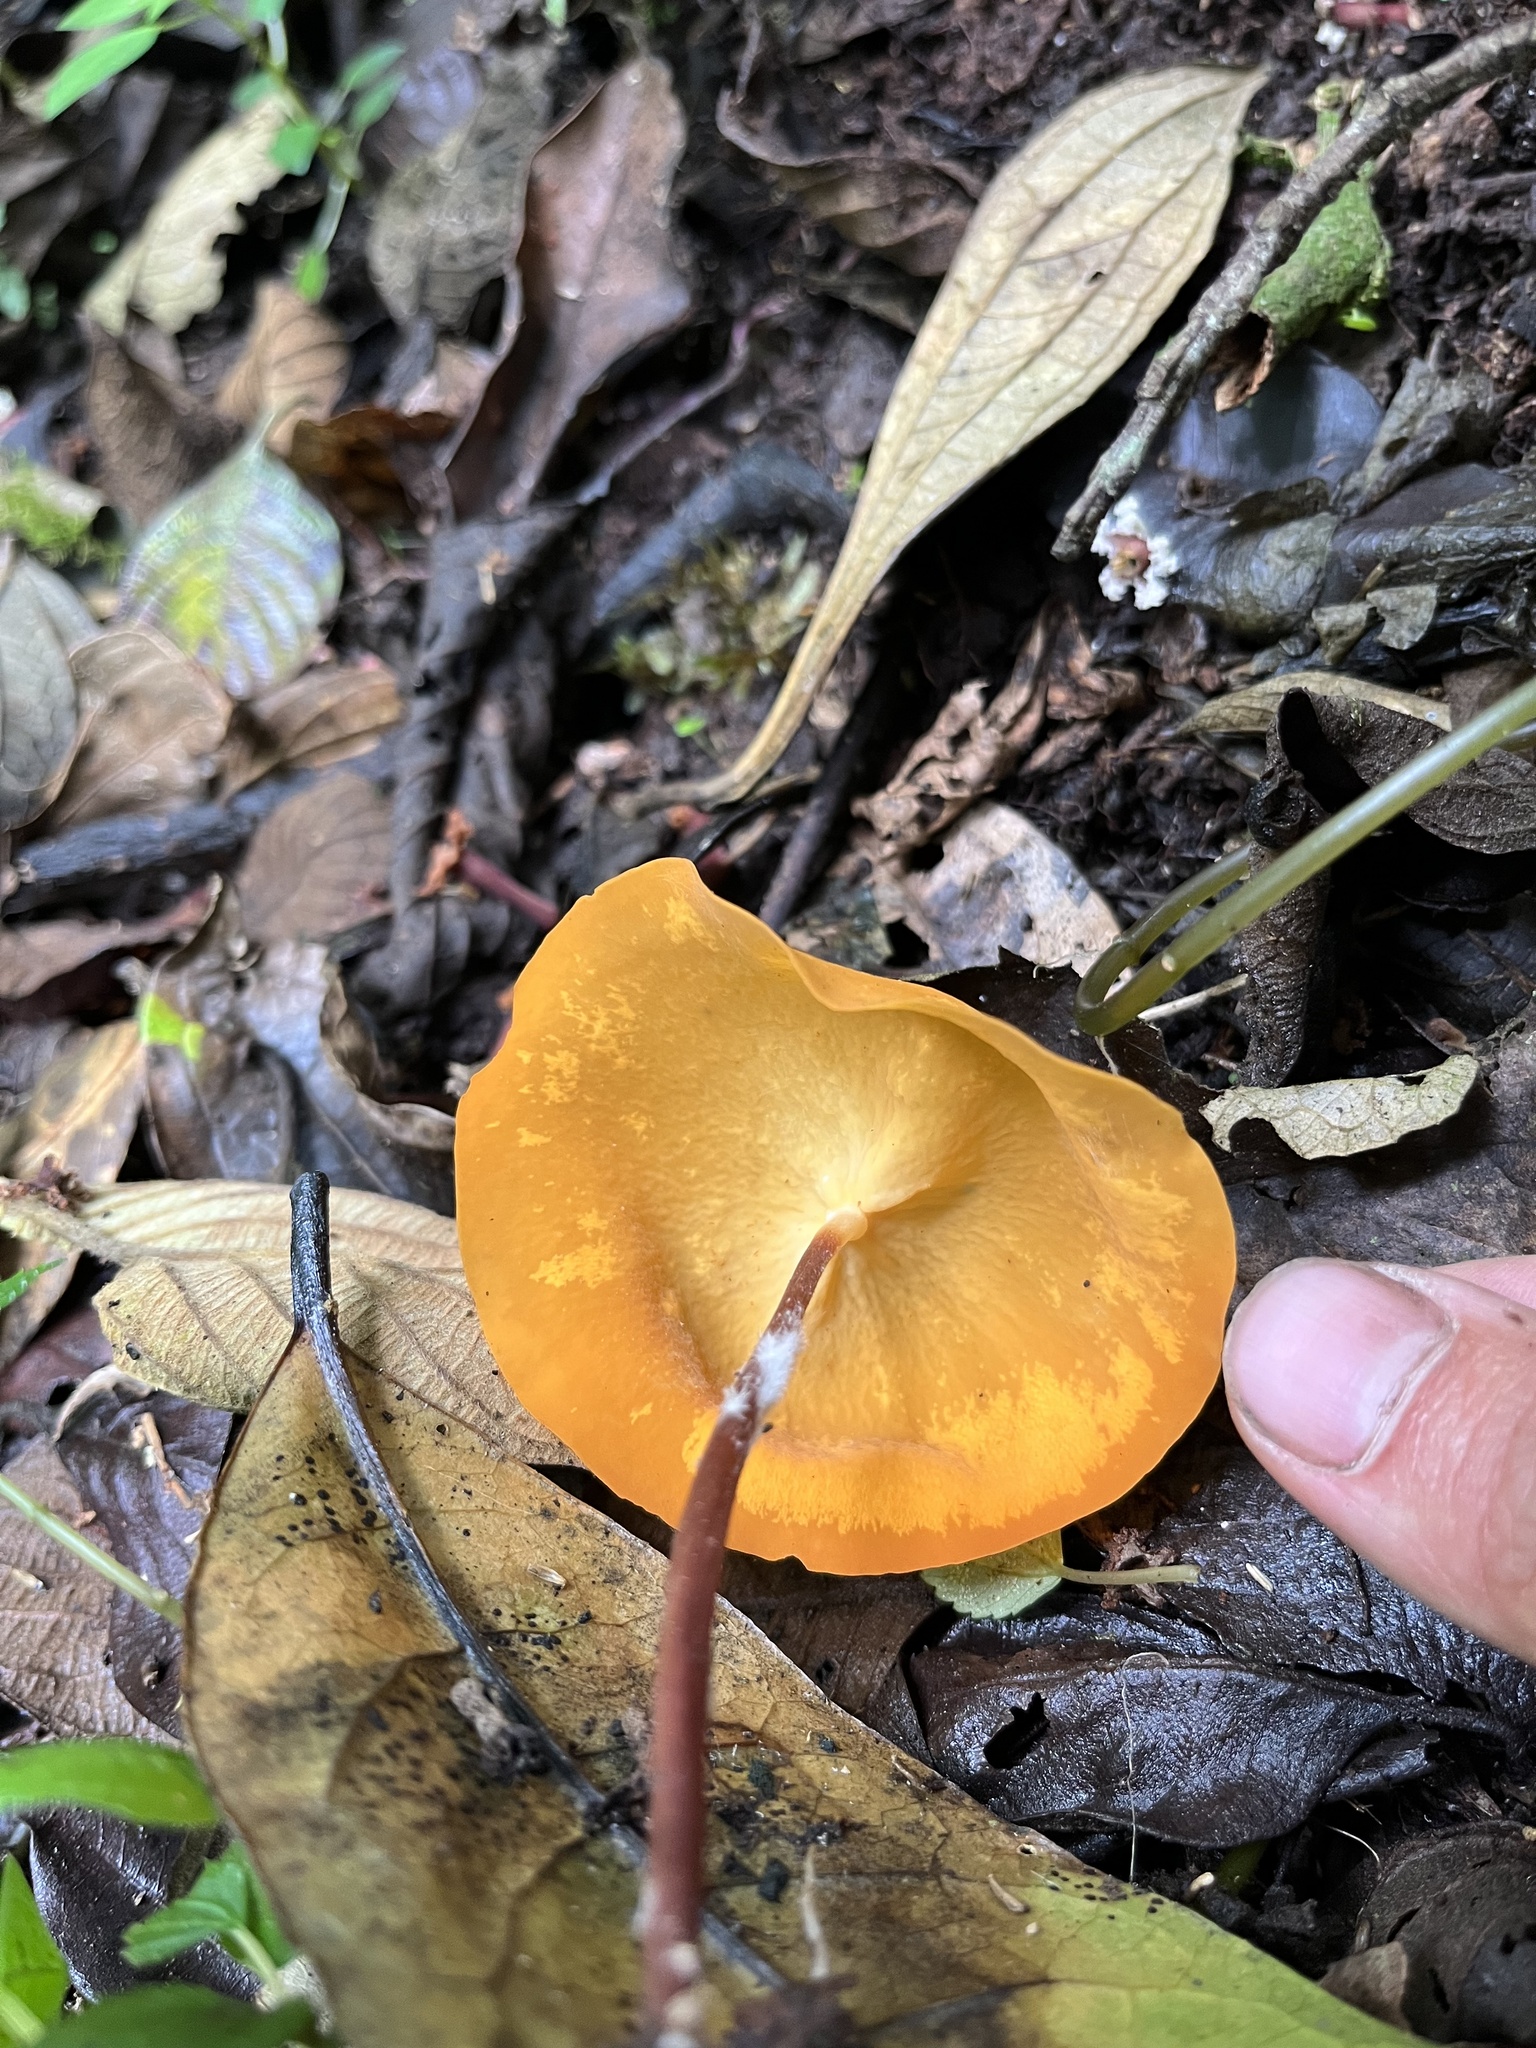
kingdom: Fungi
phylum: Basidiomycota
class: Agaricomycetes
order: Agaricales
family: Marasmiaceae
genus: Trogia
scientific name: Trogia papyracea
